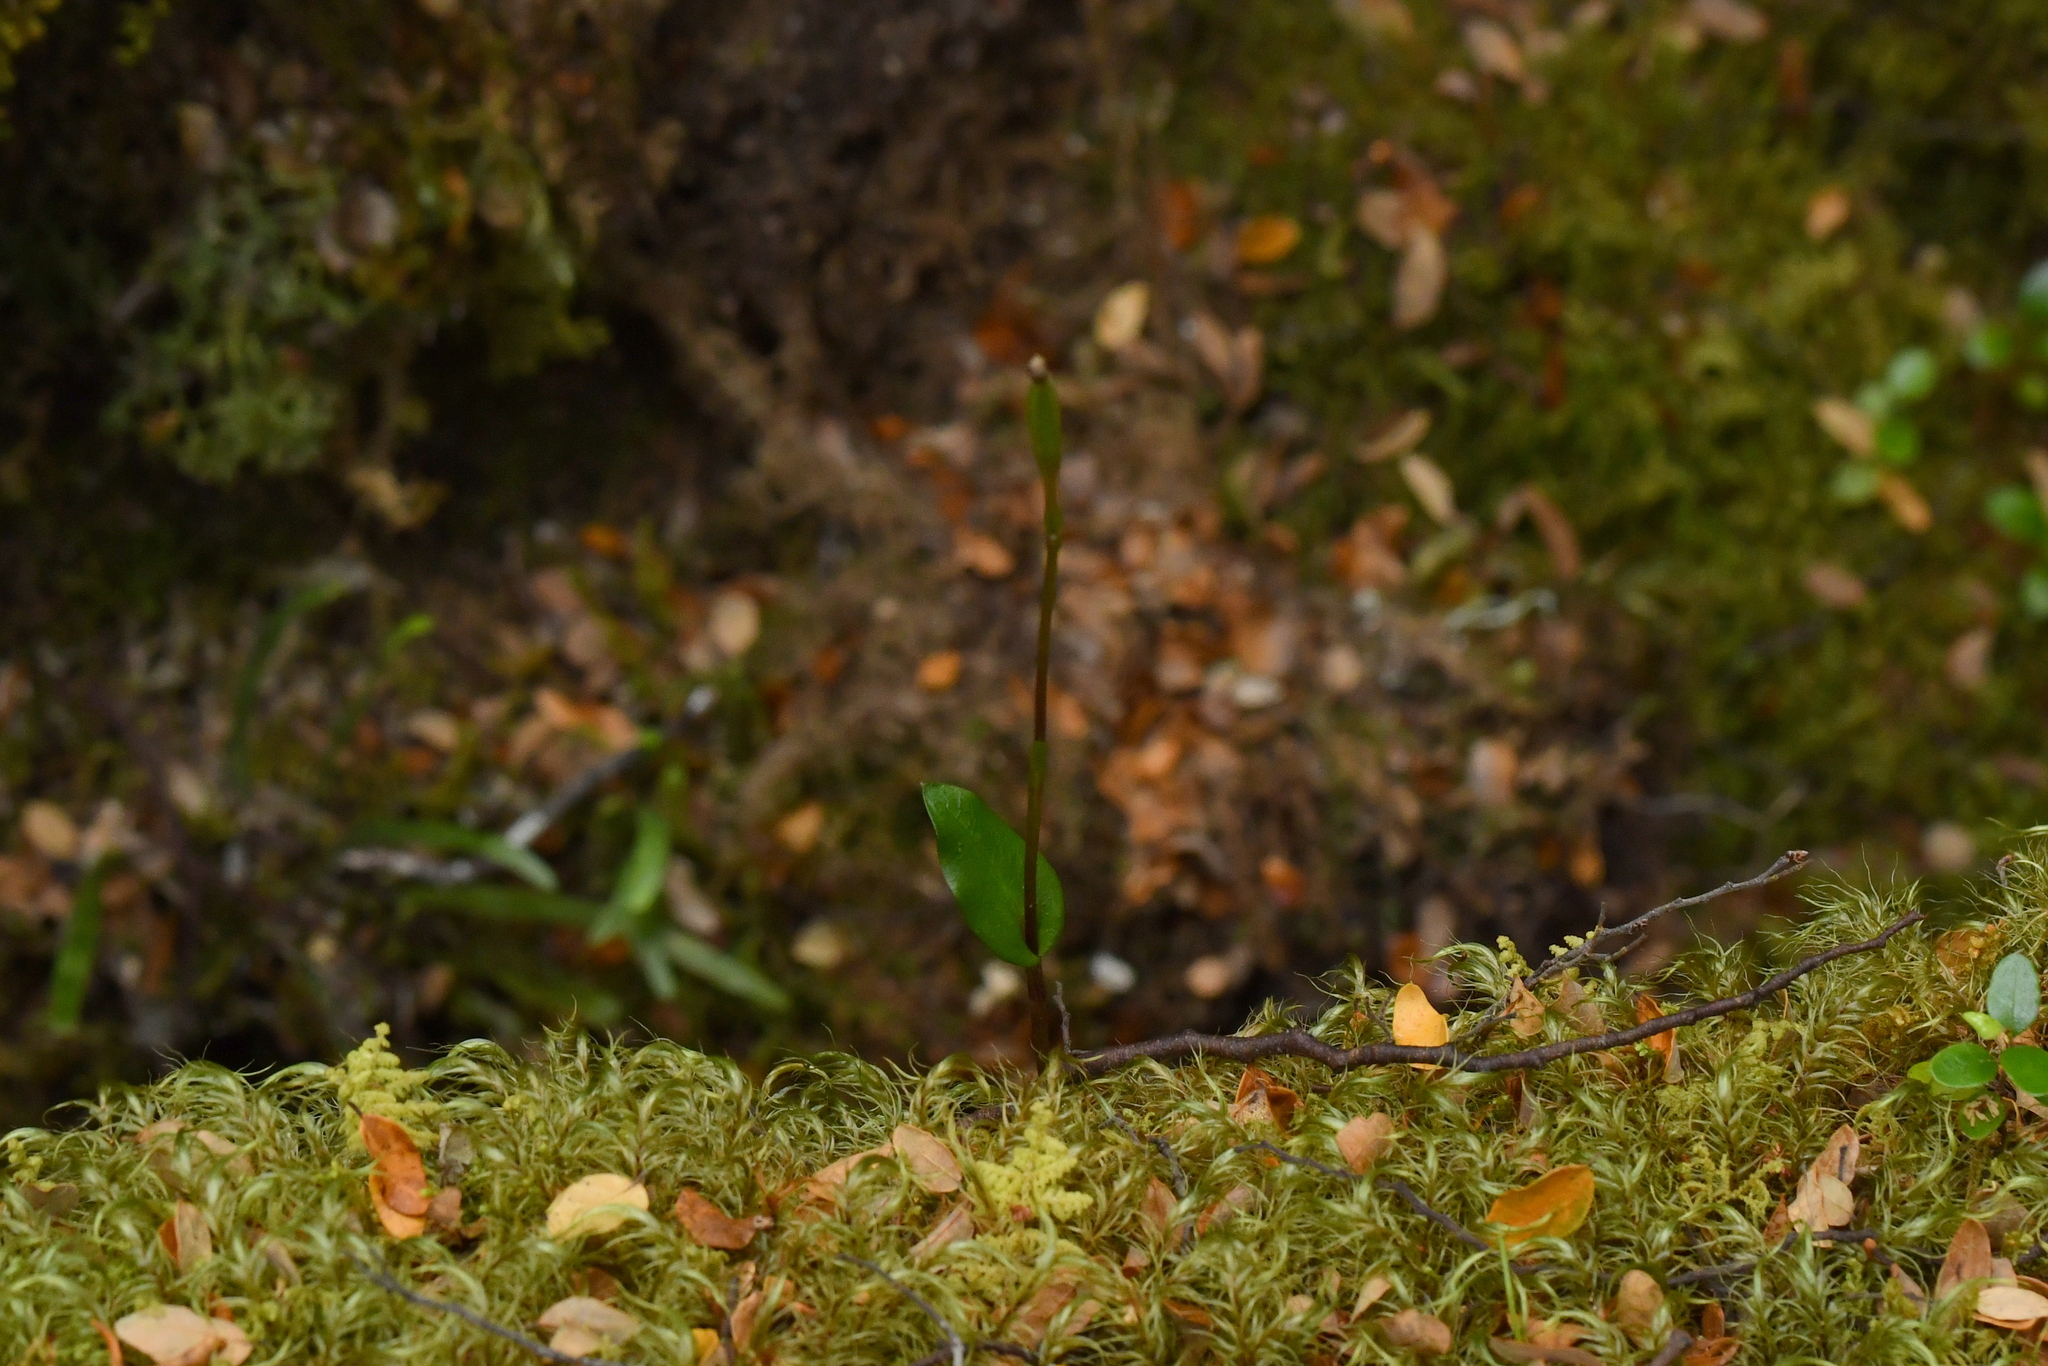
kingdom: Plantae
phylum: Tracheophyta
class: Liliopsida
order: Asparagales
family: Orchidaceae
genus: Adenochilus
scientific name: Adenochilus gracilis
